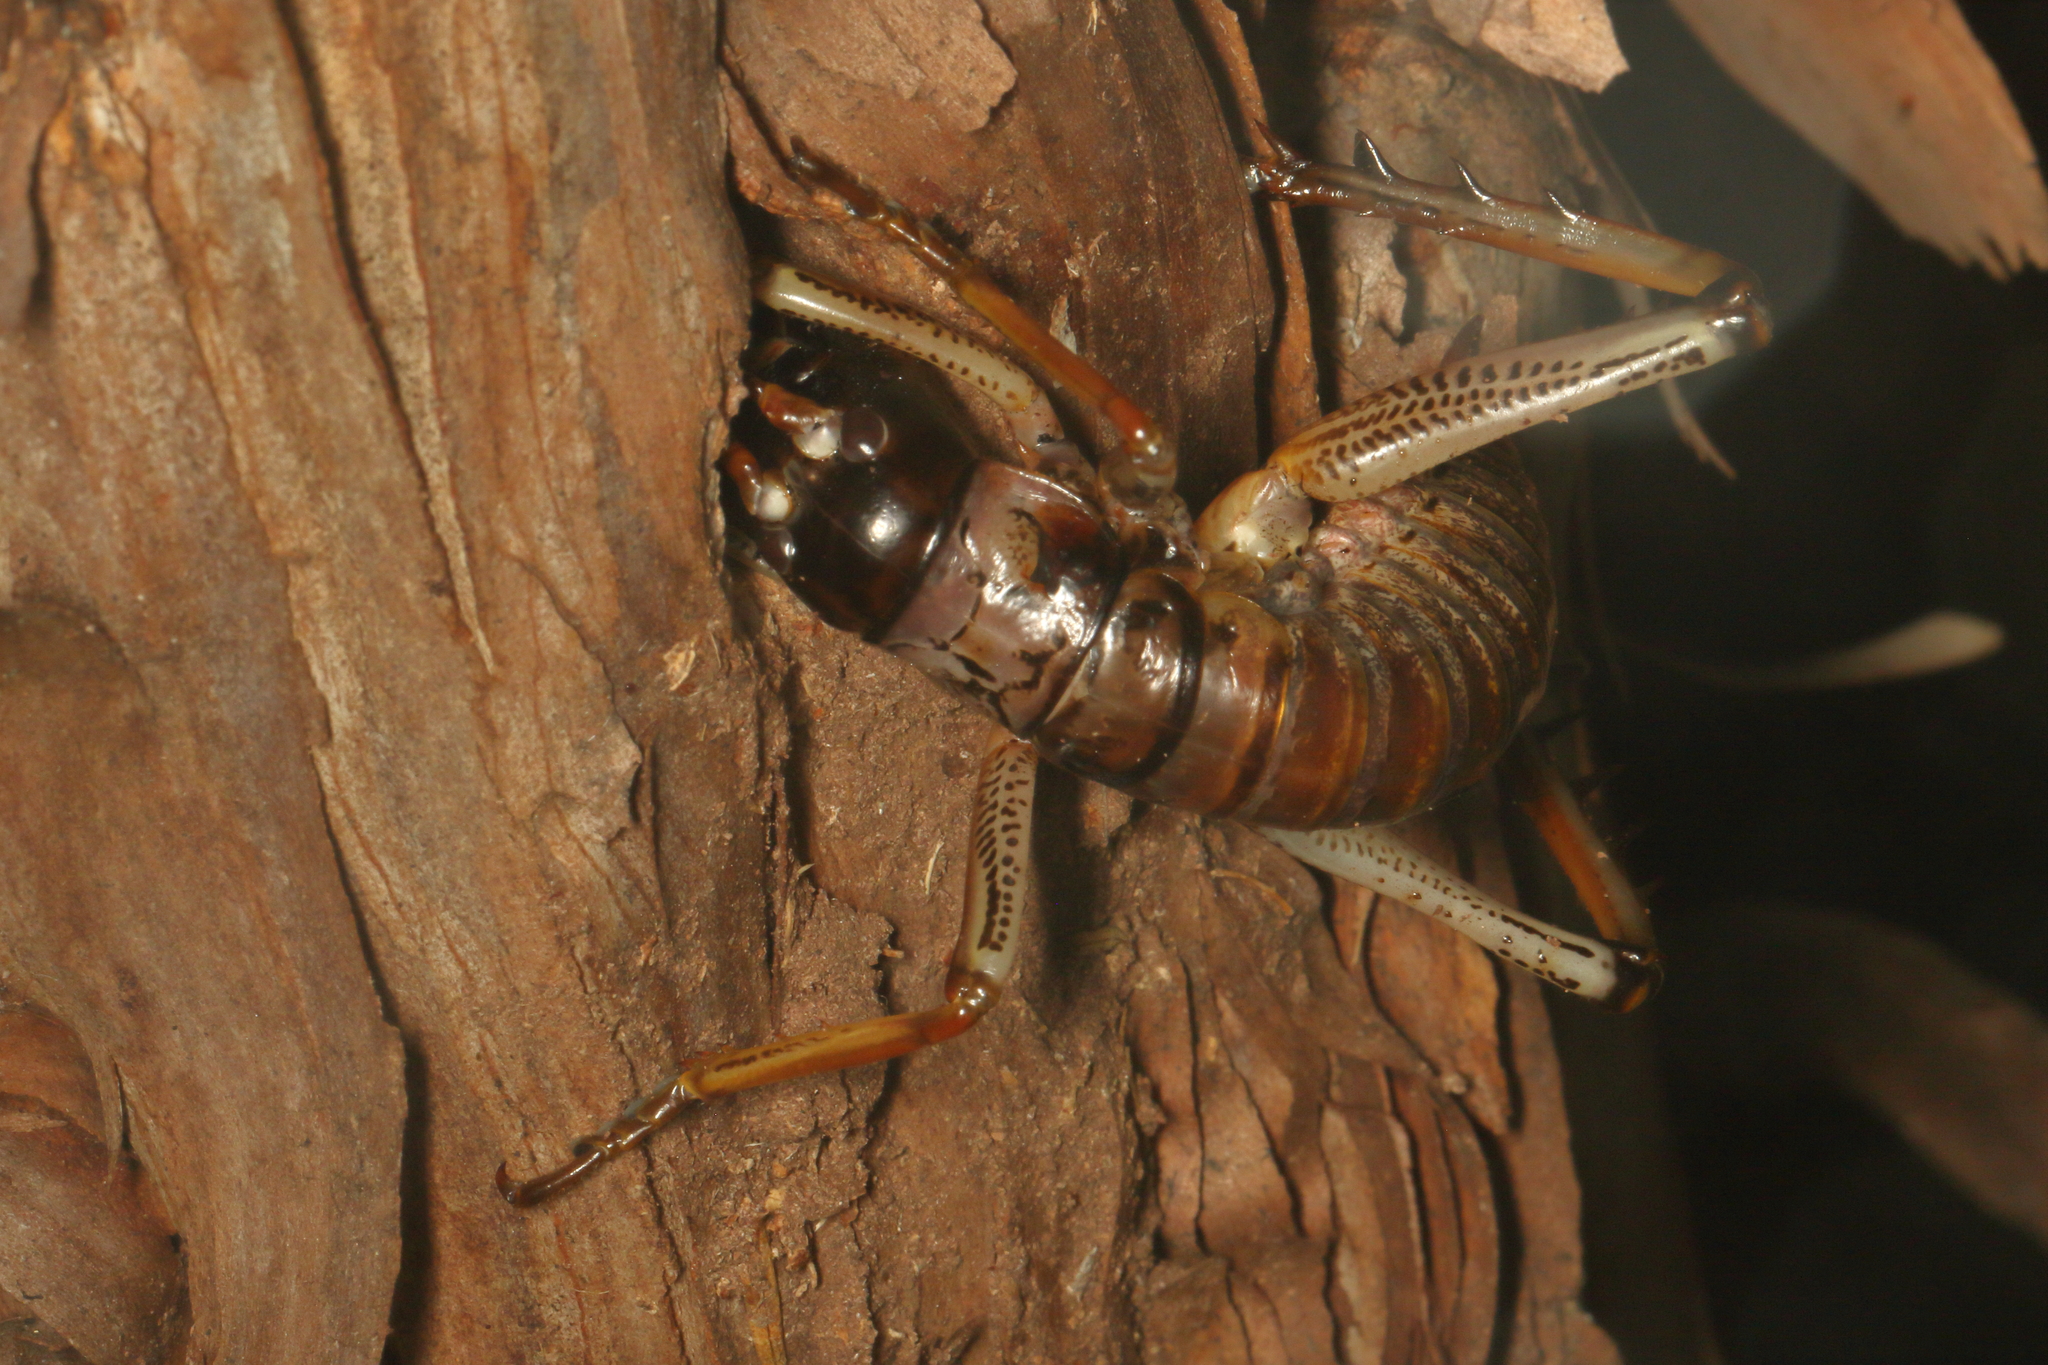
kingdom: Animalia
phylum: Arthropoda
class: Insecta
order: Orthoptera
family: Anostostomatidae
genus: Hemideina
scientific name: Hemideina thoracica
